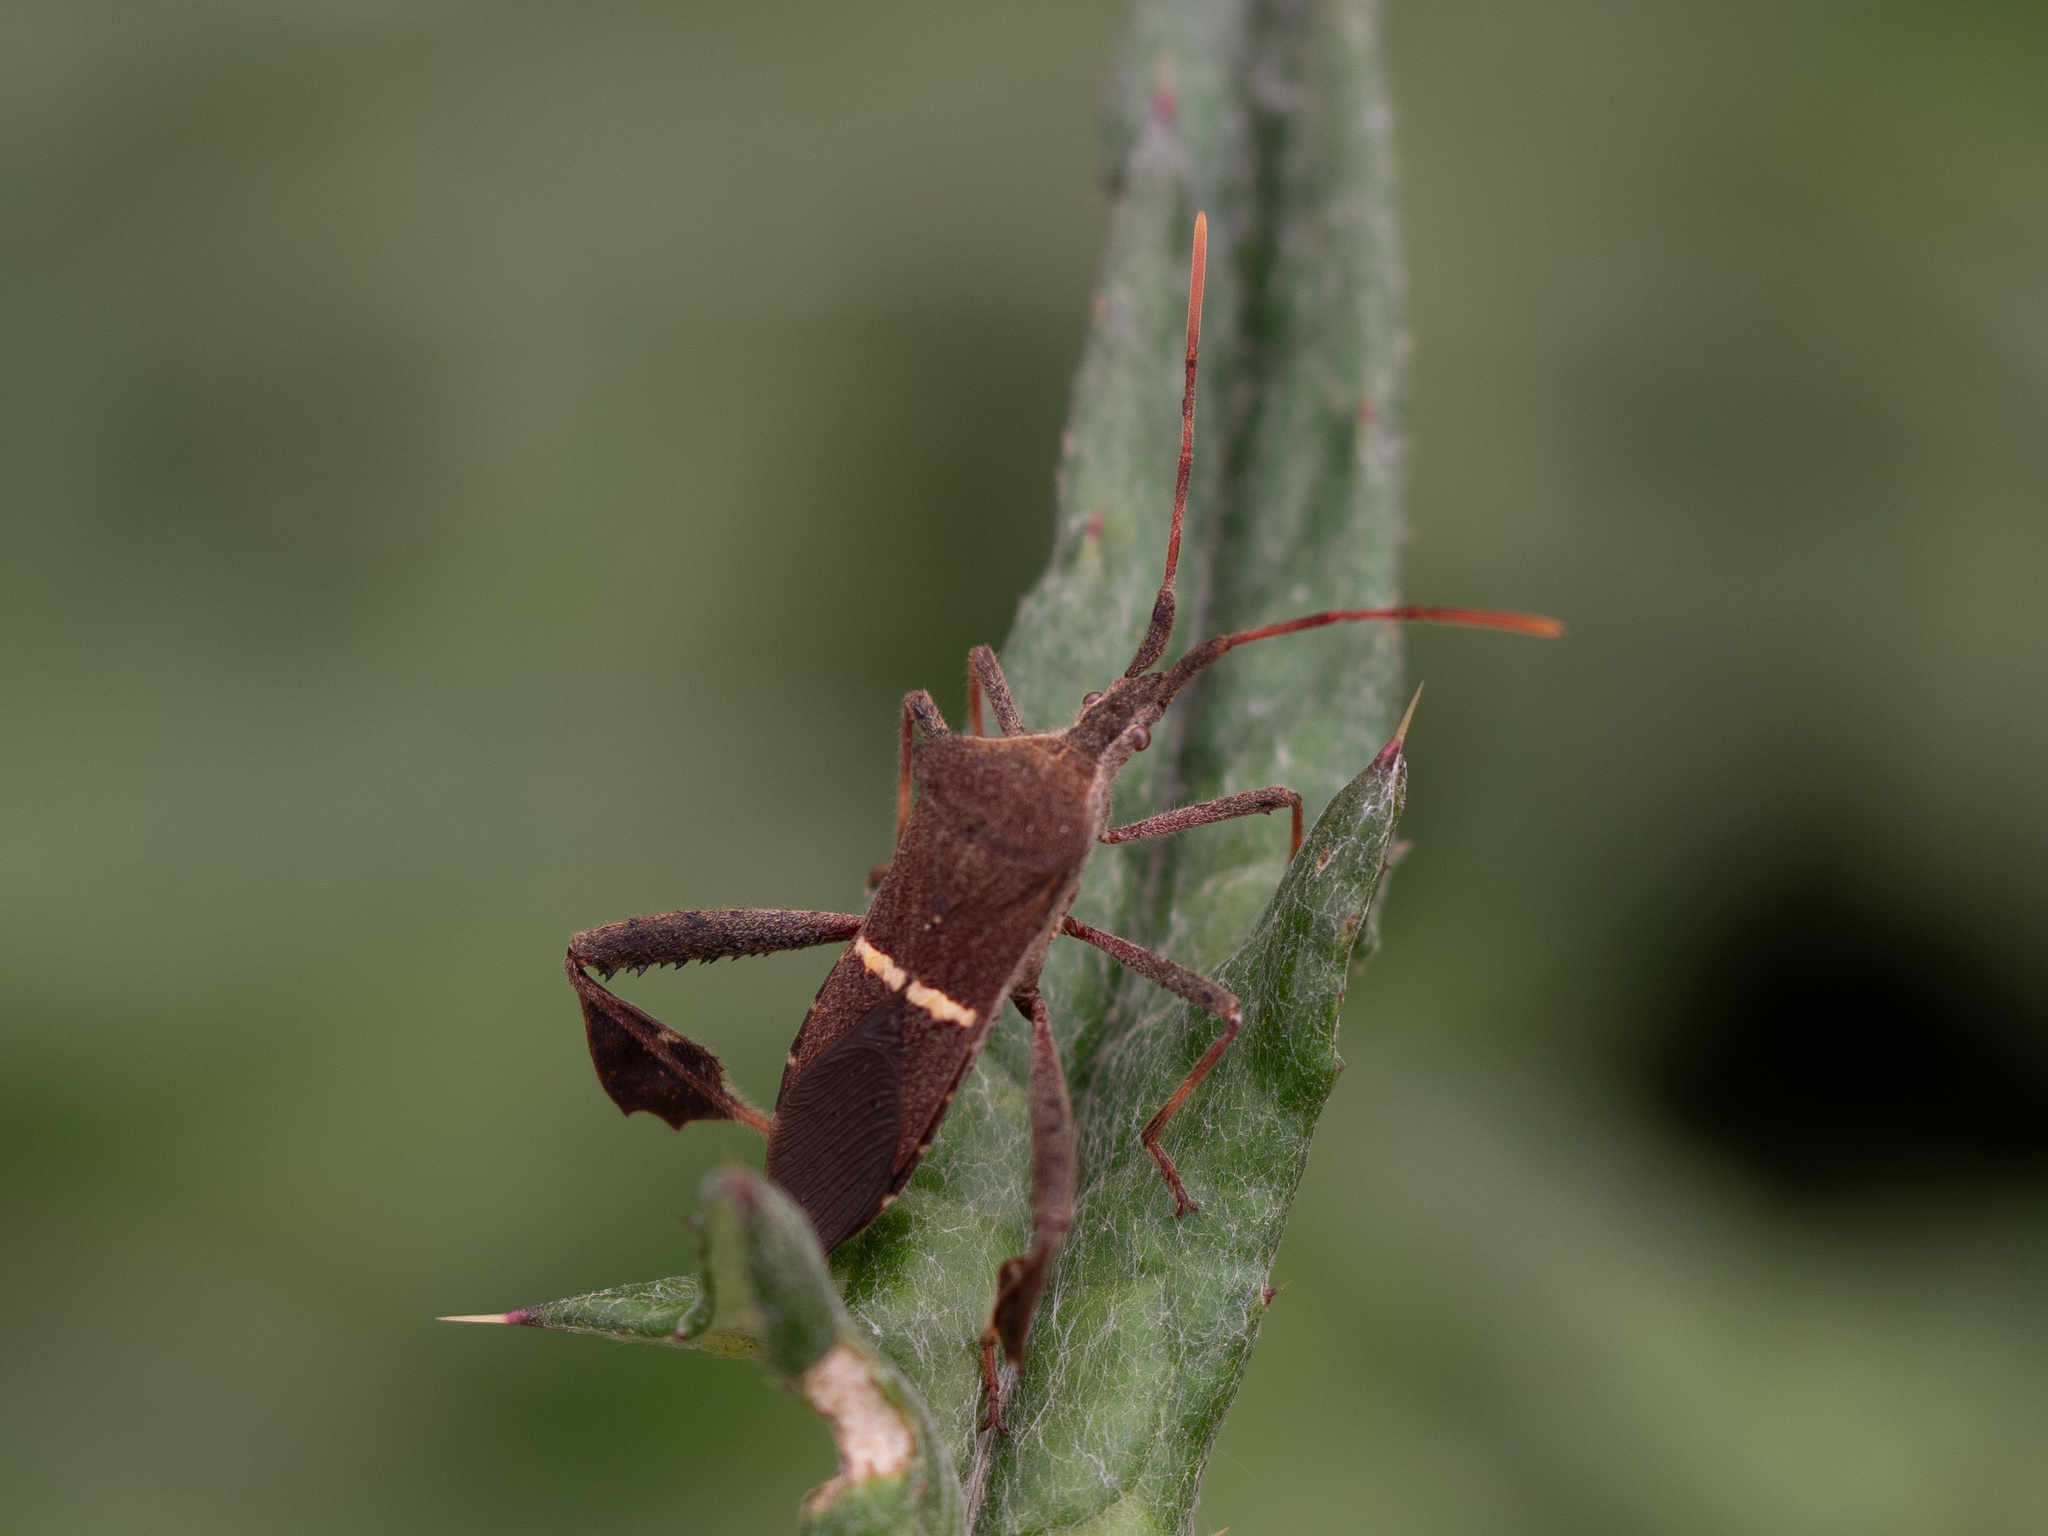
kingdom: Animalia
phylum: Arthropoda
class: Insecta
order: Hemiptera
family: Coreidae
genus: Leptoglossus
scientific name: Leptoglossus phyllopus
